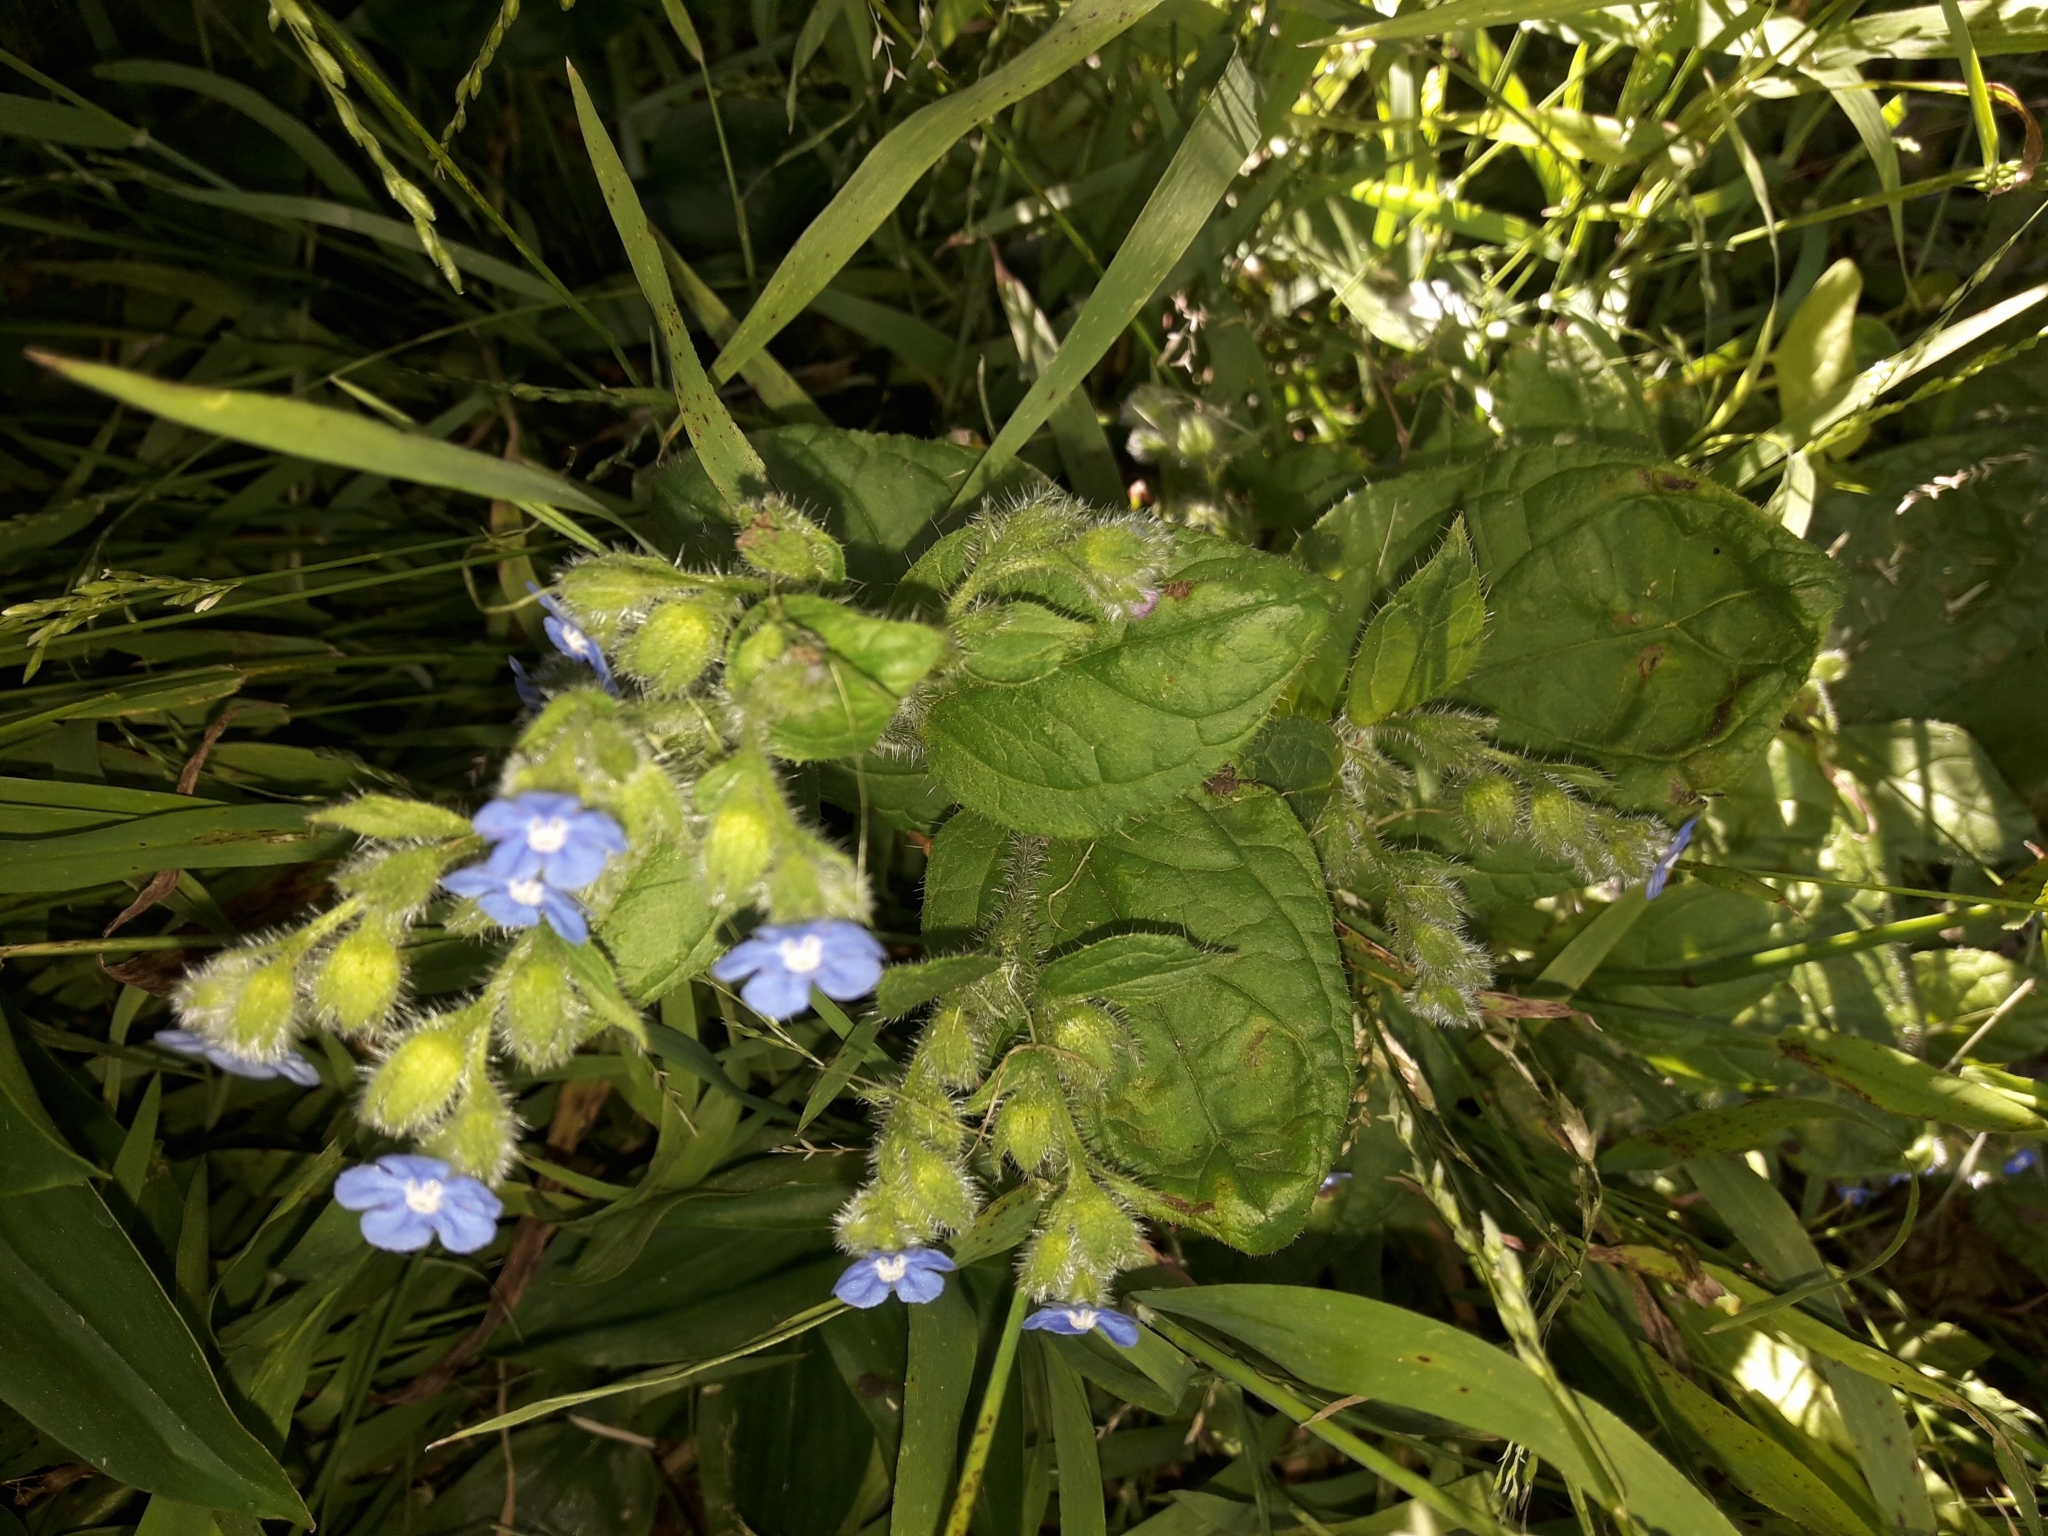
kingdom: Plantae
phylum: Tracheophyta
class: Magnoliopsida
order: Boraginales
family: Boraginaceae
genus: Pentaglottis
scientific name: Pentaglottis sempervirens
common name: Green alkanet
